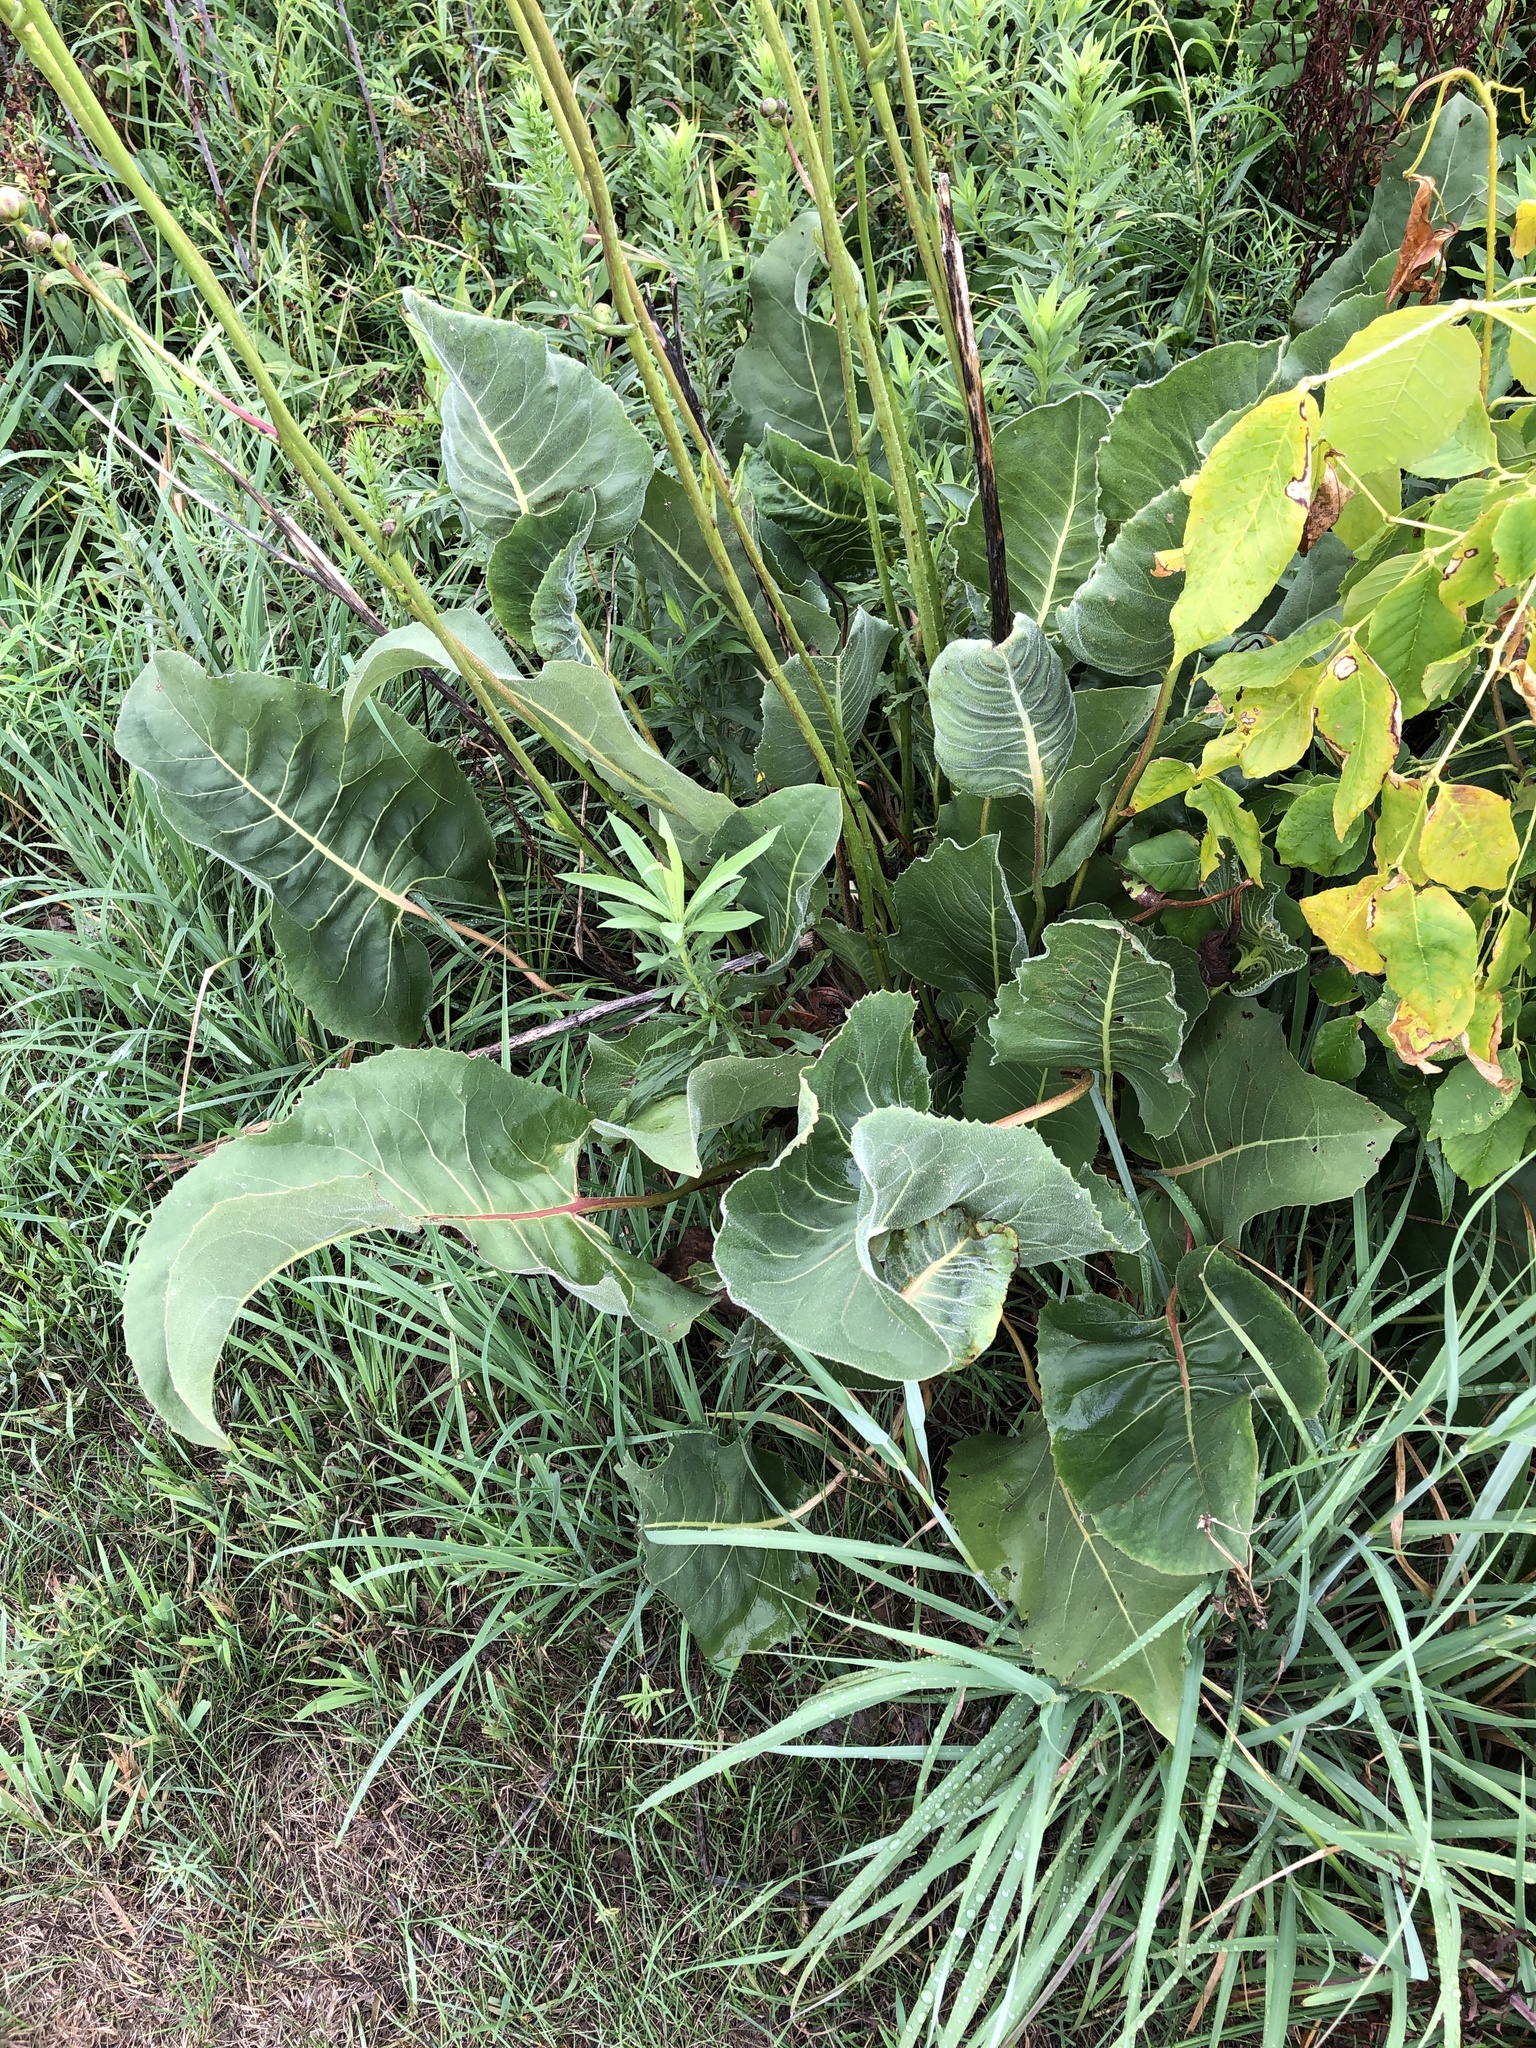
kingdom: Plantae
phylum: Tracheophyta
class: Magnoliopsida
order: Asterales
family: Asteraceae
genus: Silphium
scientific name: Silphium terebinthinaceum
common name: Basal-leaf rosinweed
